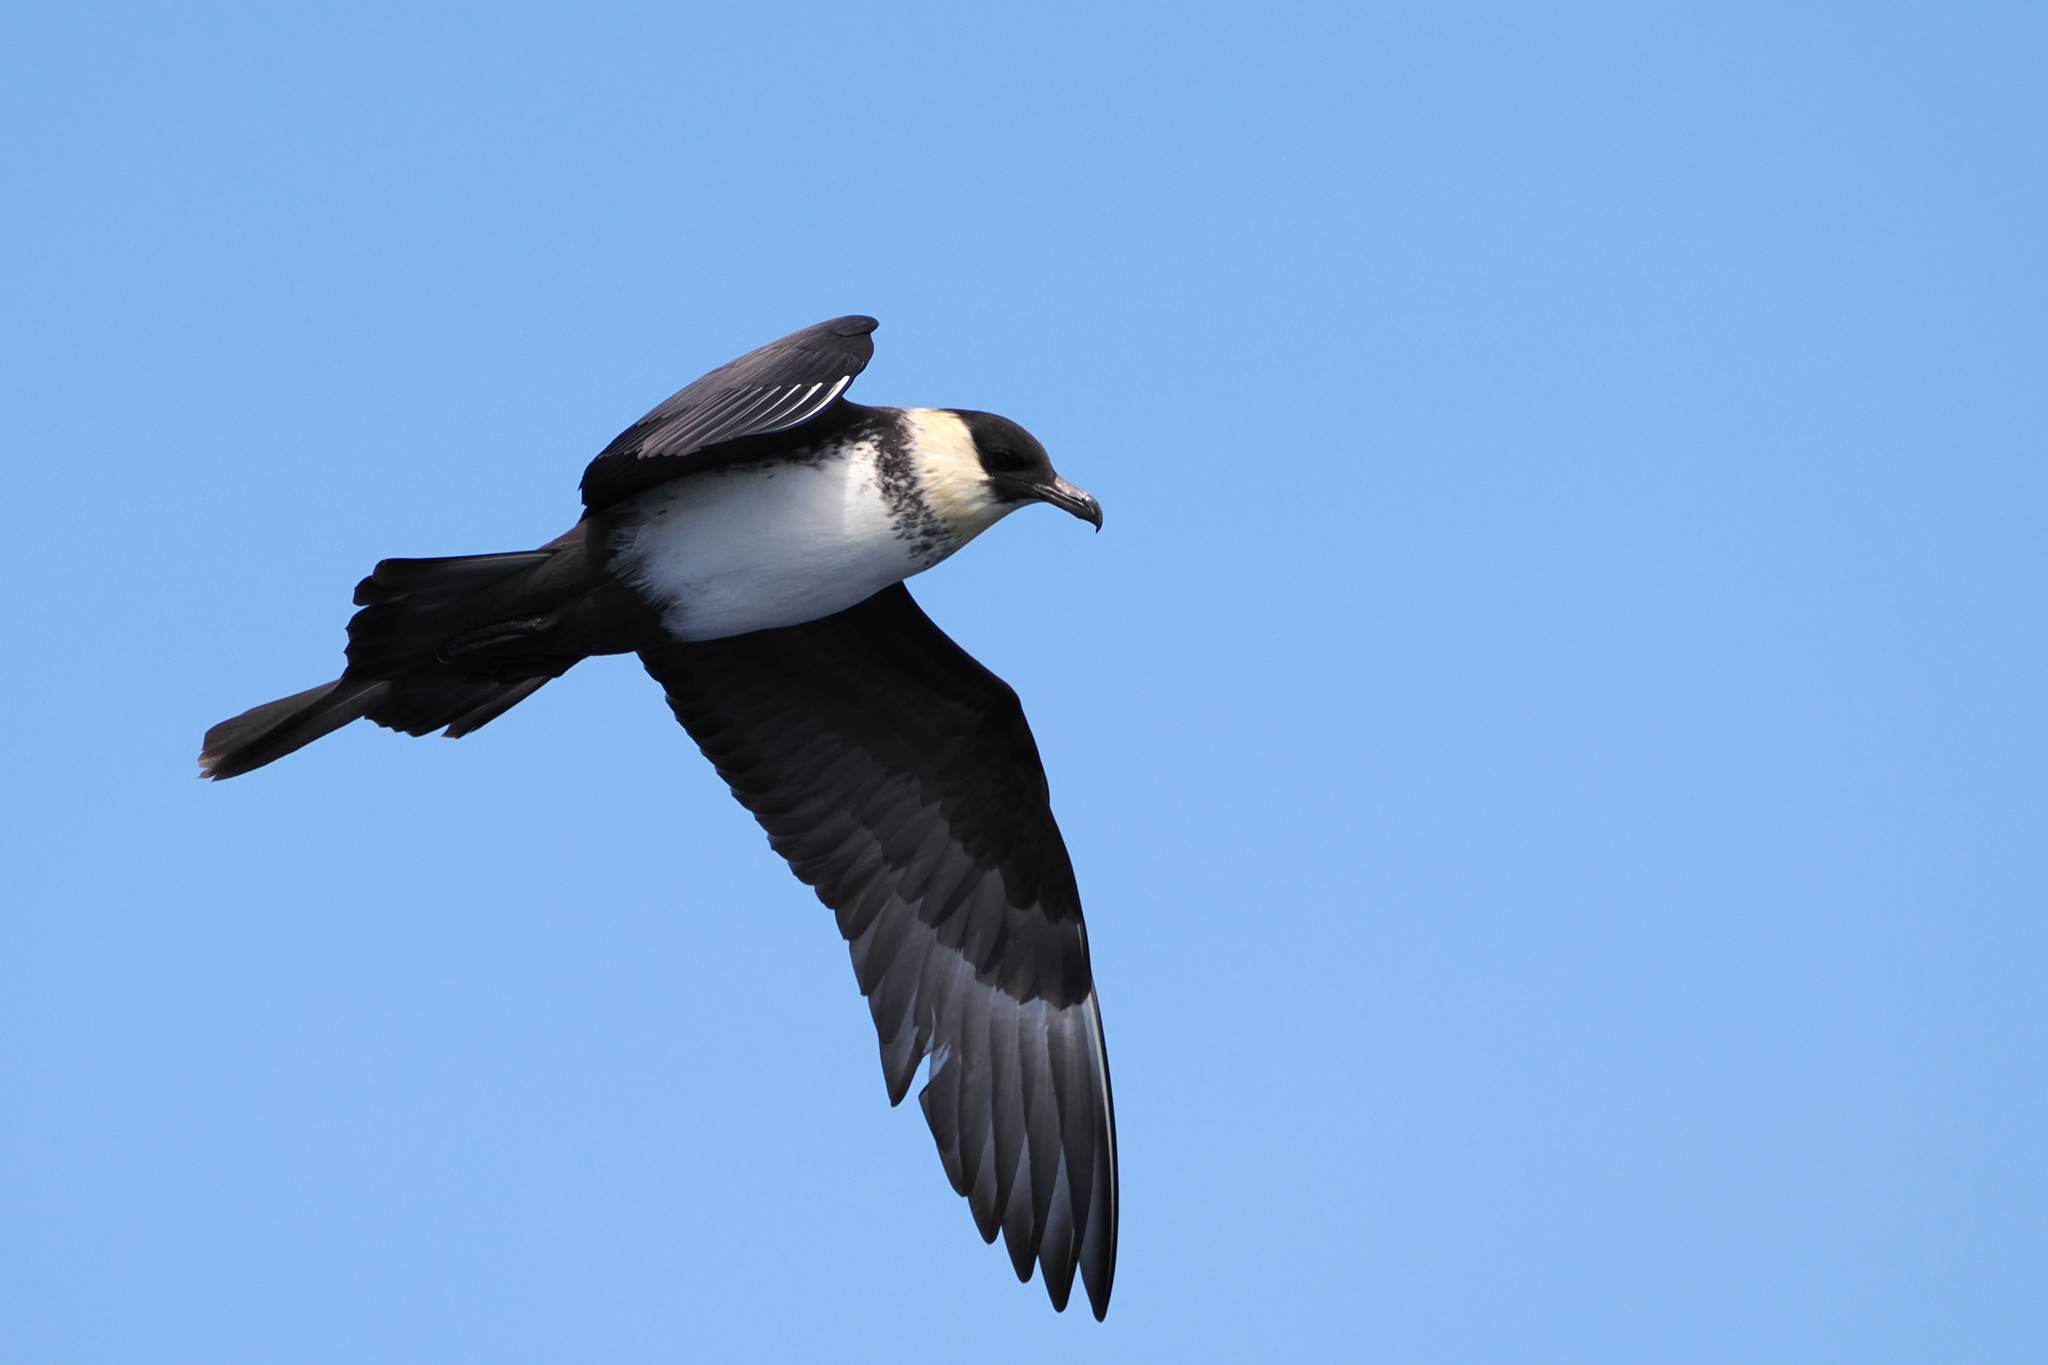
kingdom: Animalia
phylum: Chordata
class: Aves
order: Charadriiformes
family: Stercorariidae
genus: Stercorarius
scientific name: Stercorarius pomarinus
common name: Pomarine jaeger
